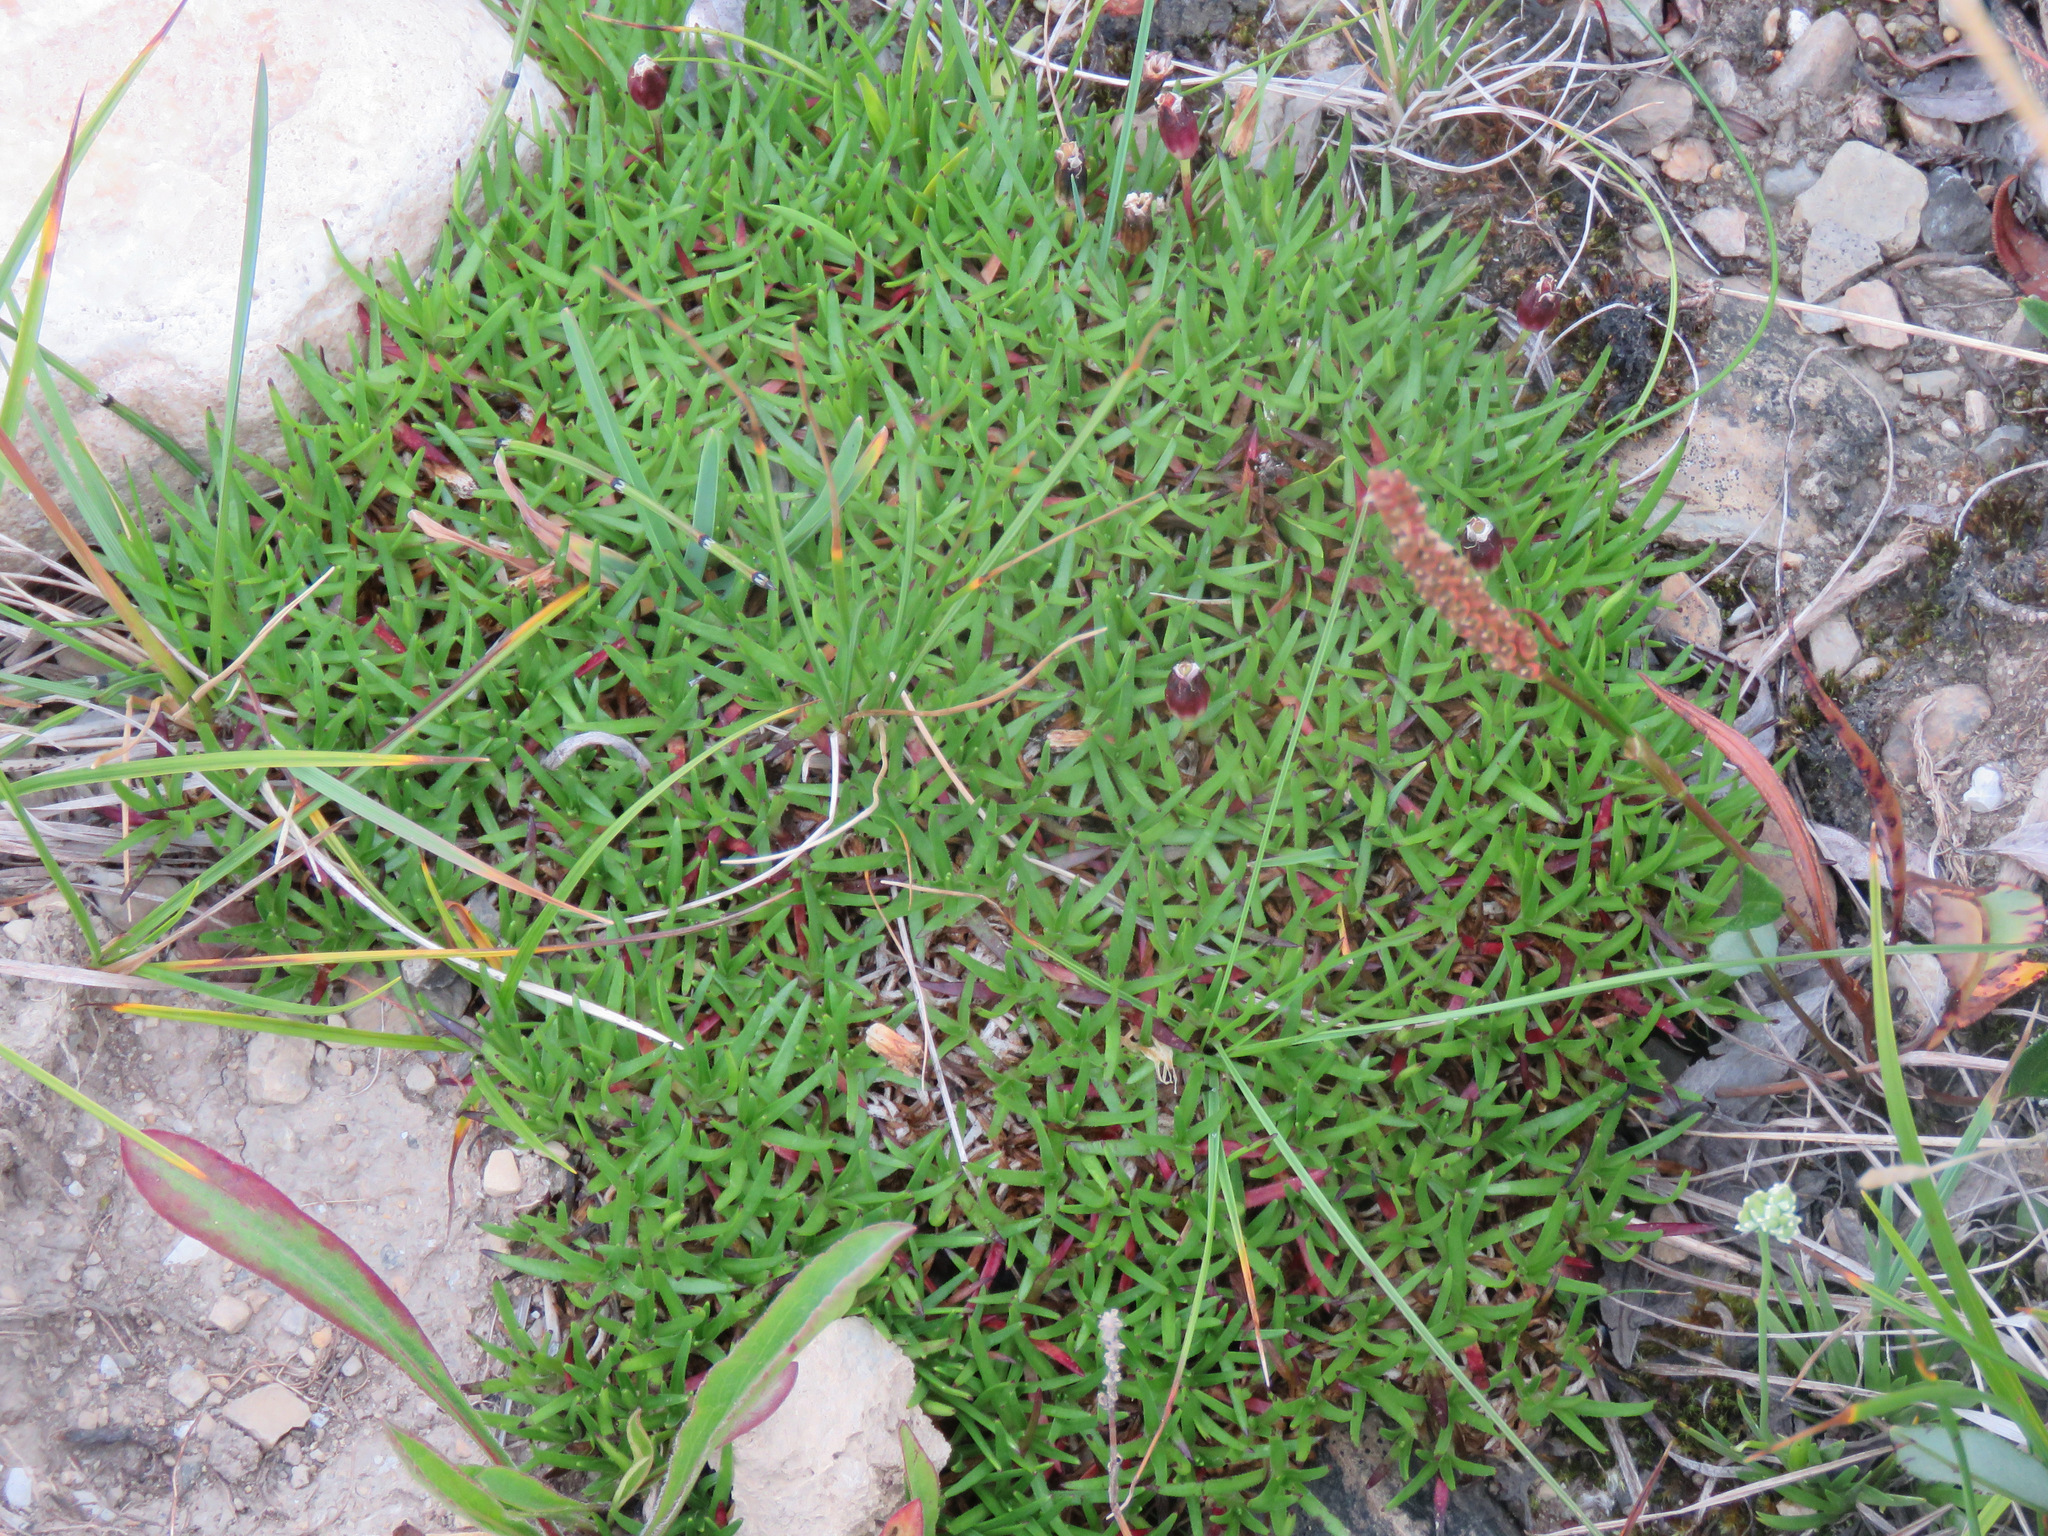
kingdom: Plantae
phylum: Tracheophyta
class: Magnoliopsida
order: Caryophyllales
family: Caryophyllaceae
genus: Silene
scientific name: Silene acaulis
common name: Moss campion
